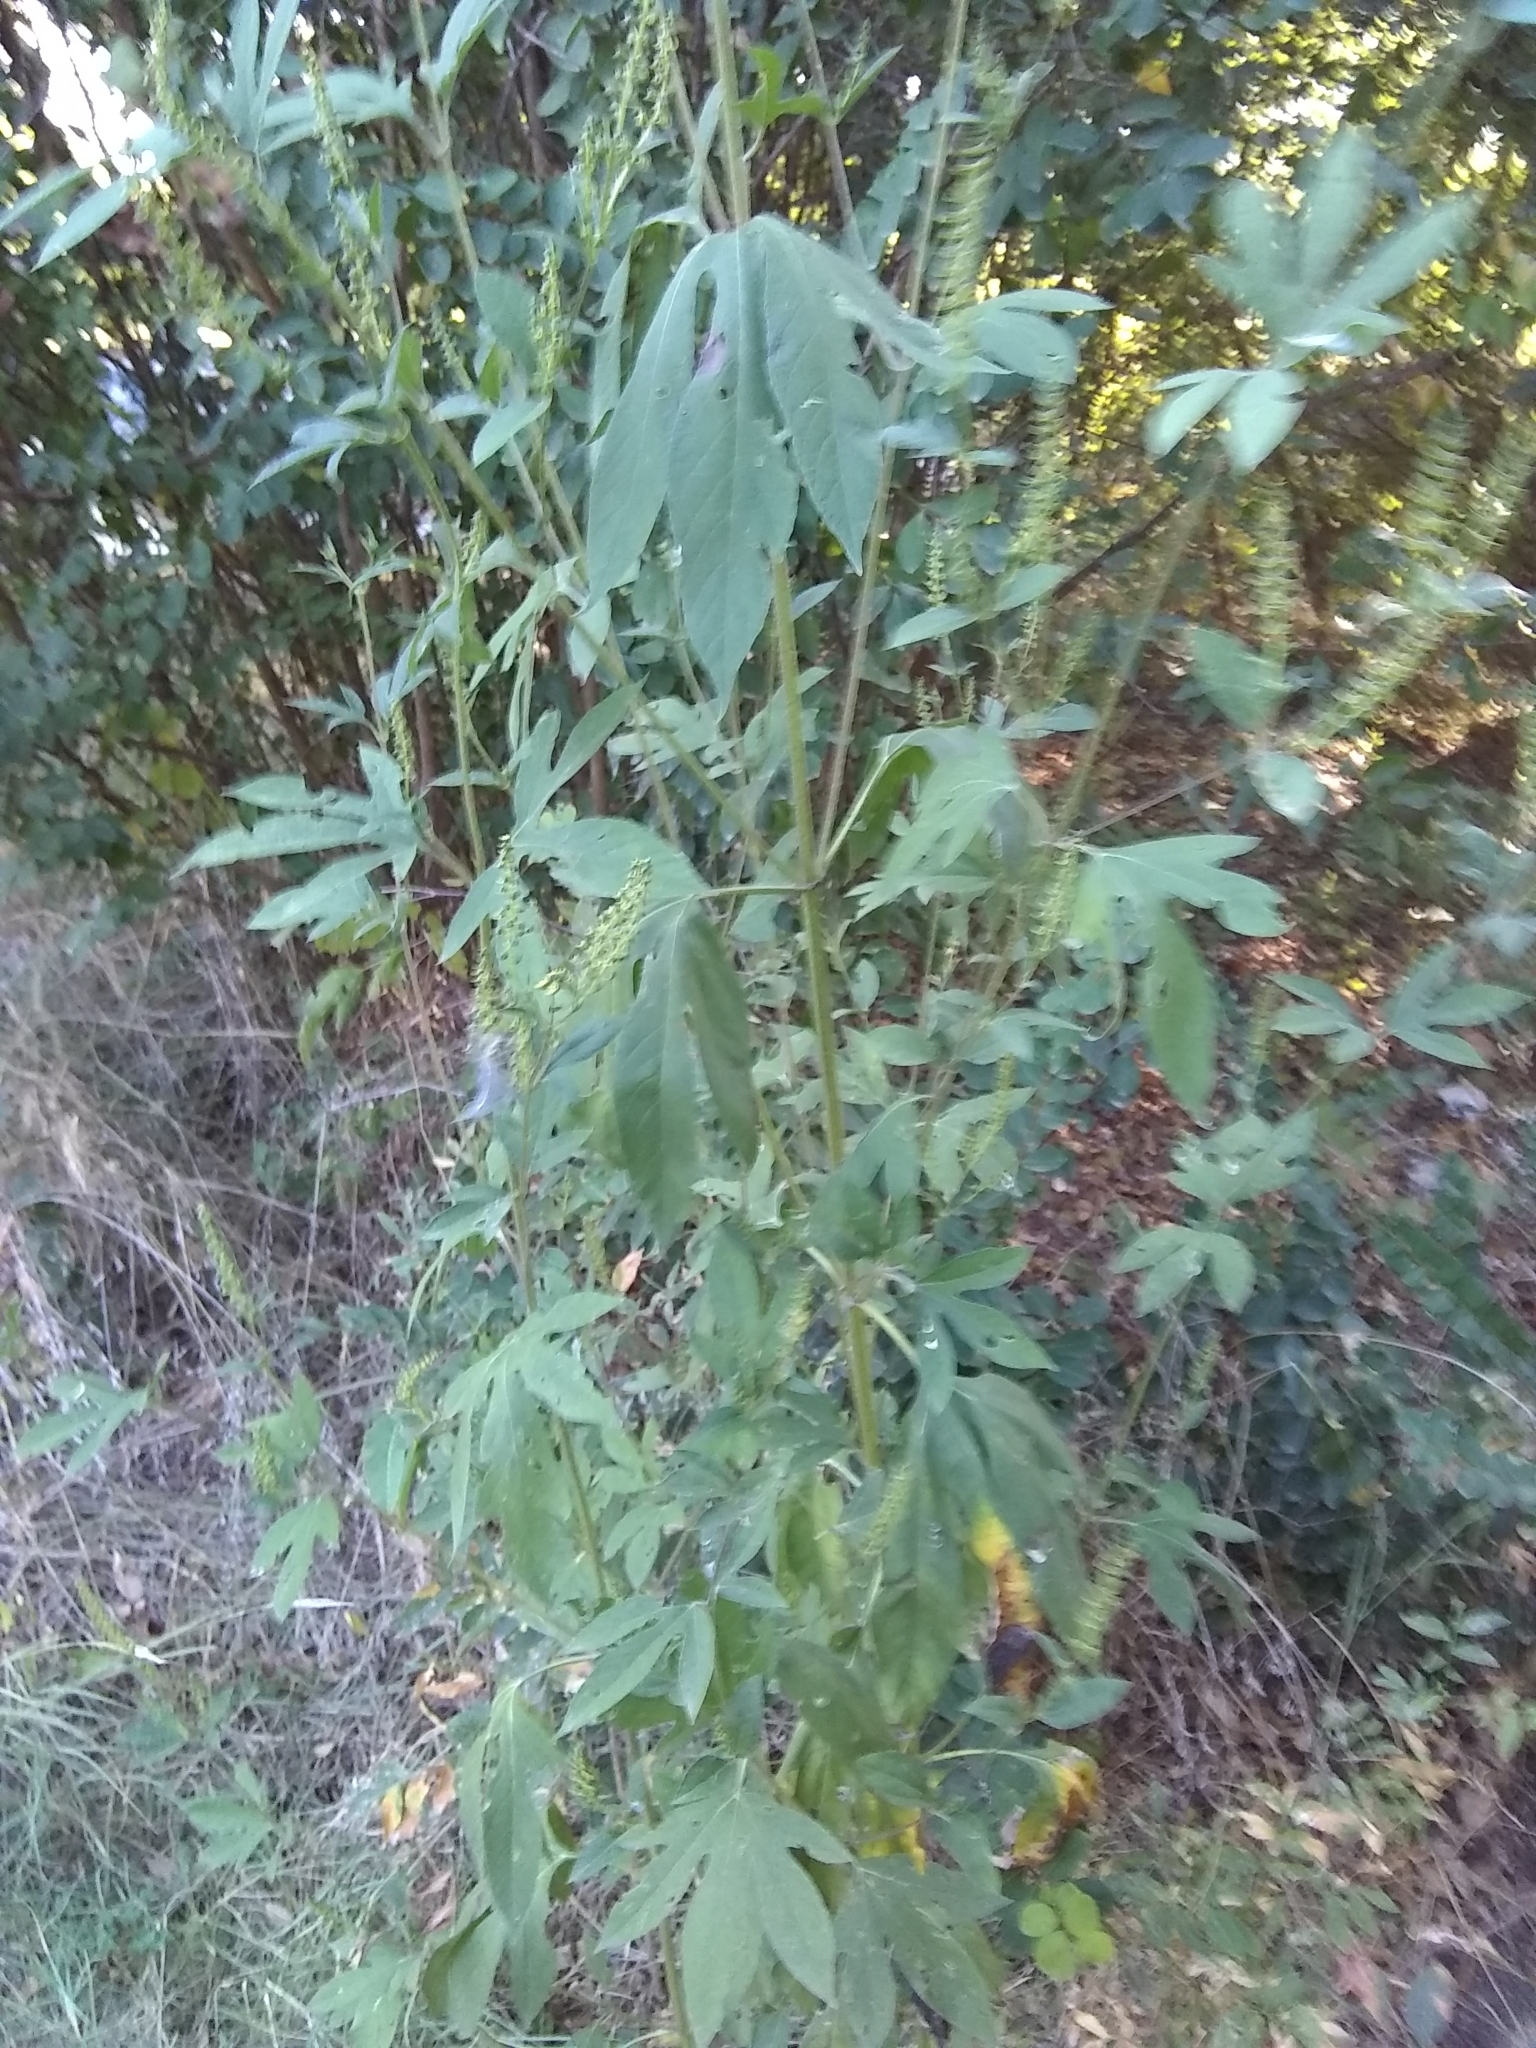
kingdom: Plantae
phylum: Tracheophyta
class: Magnoliopsida
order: Asterales
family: Asteraceae
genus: Ambrosia
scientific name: Ambrosia trifida
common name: Giant ragweed
